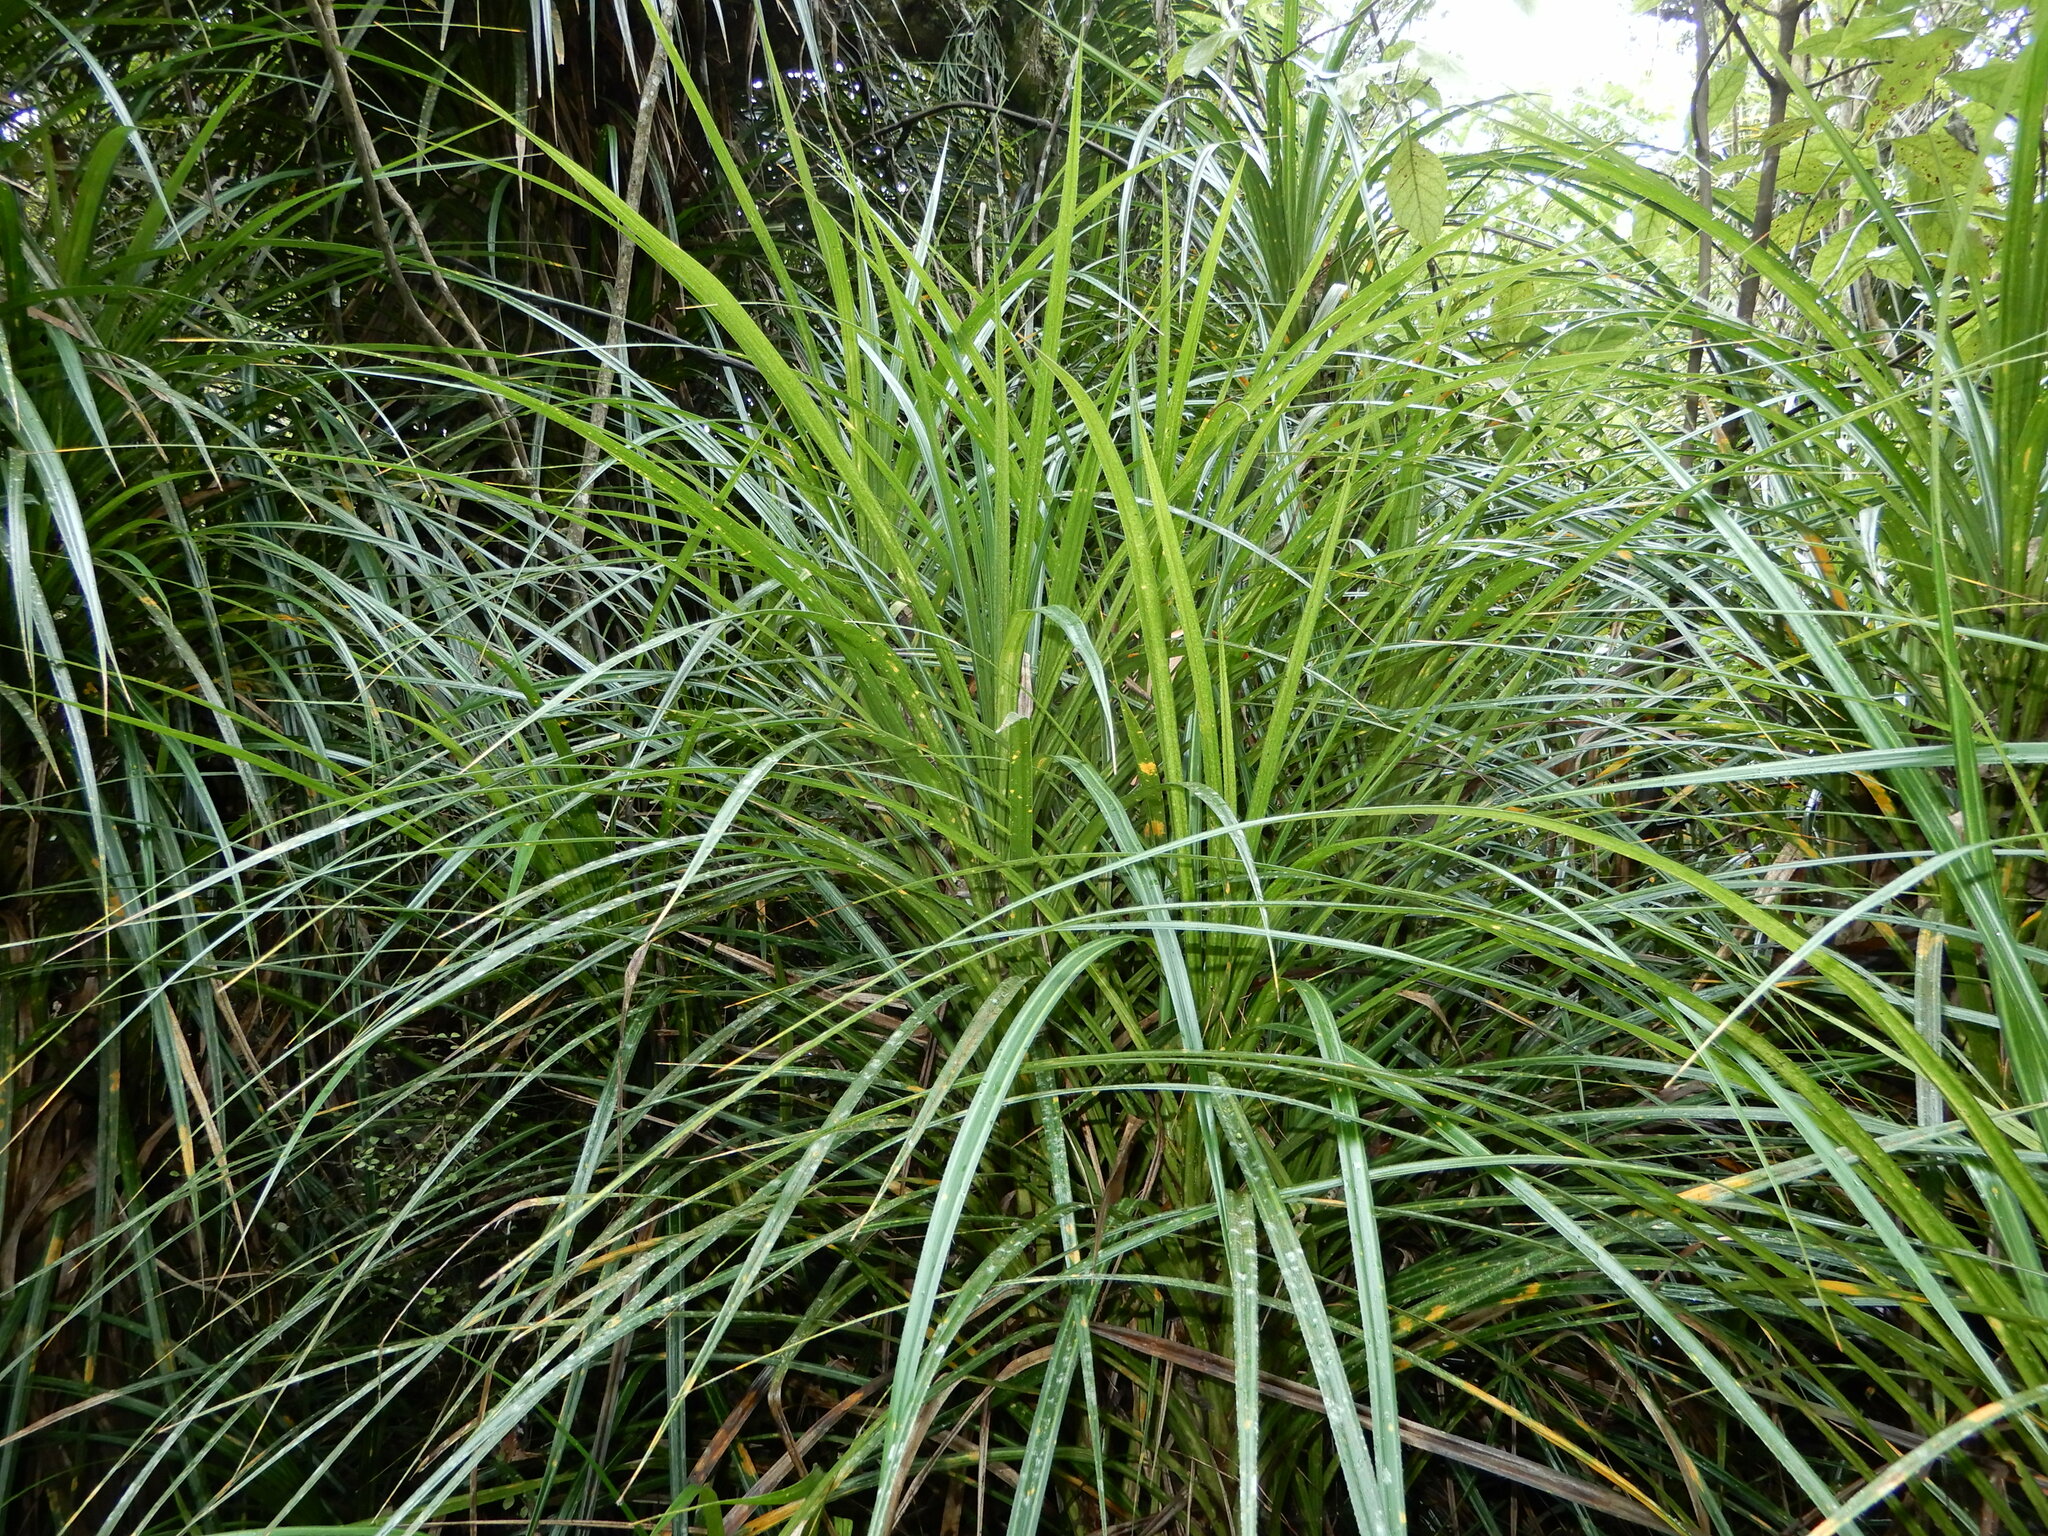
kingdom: Plantae
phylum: Tracheophyta
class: Liliopsida
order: Pandanales
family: Pandanaceae
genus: Freycinetia
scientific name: Freycinetia banksii
